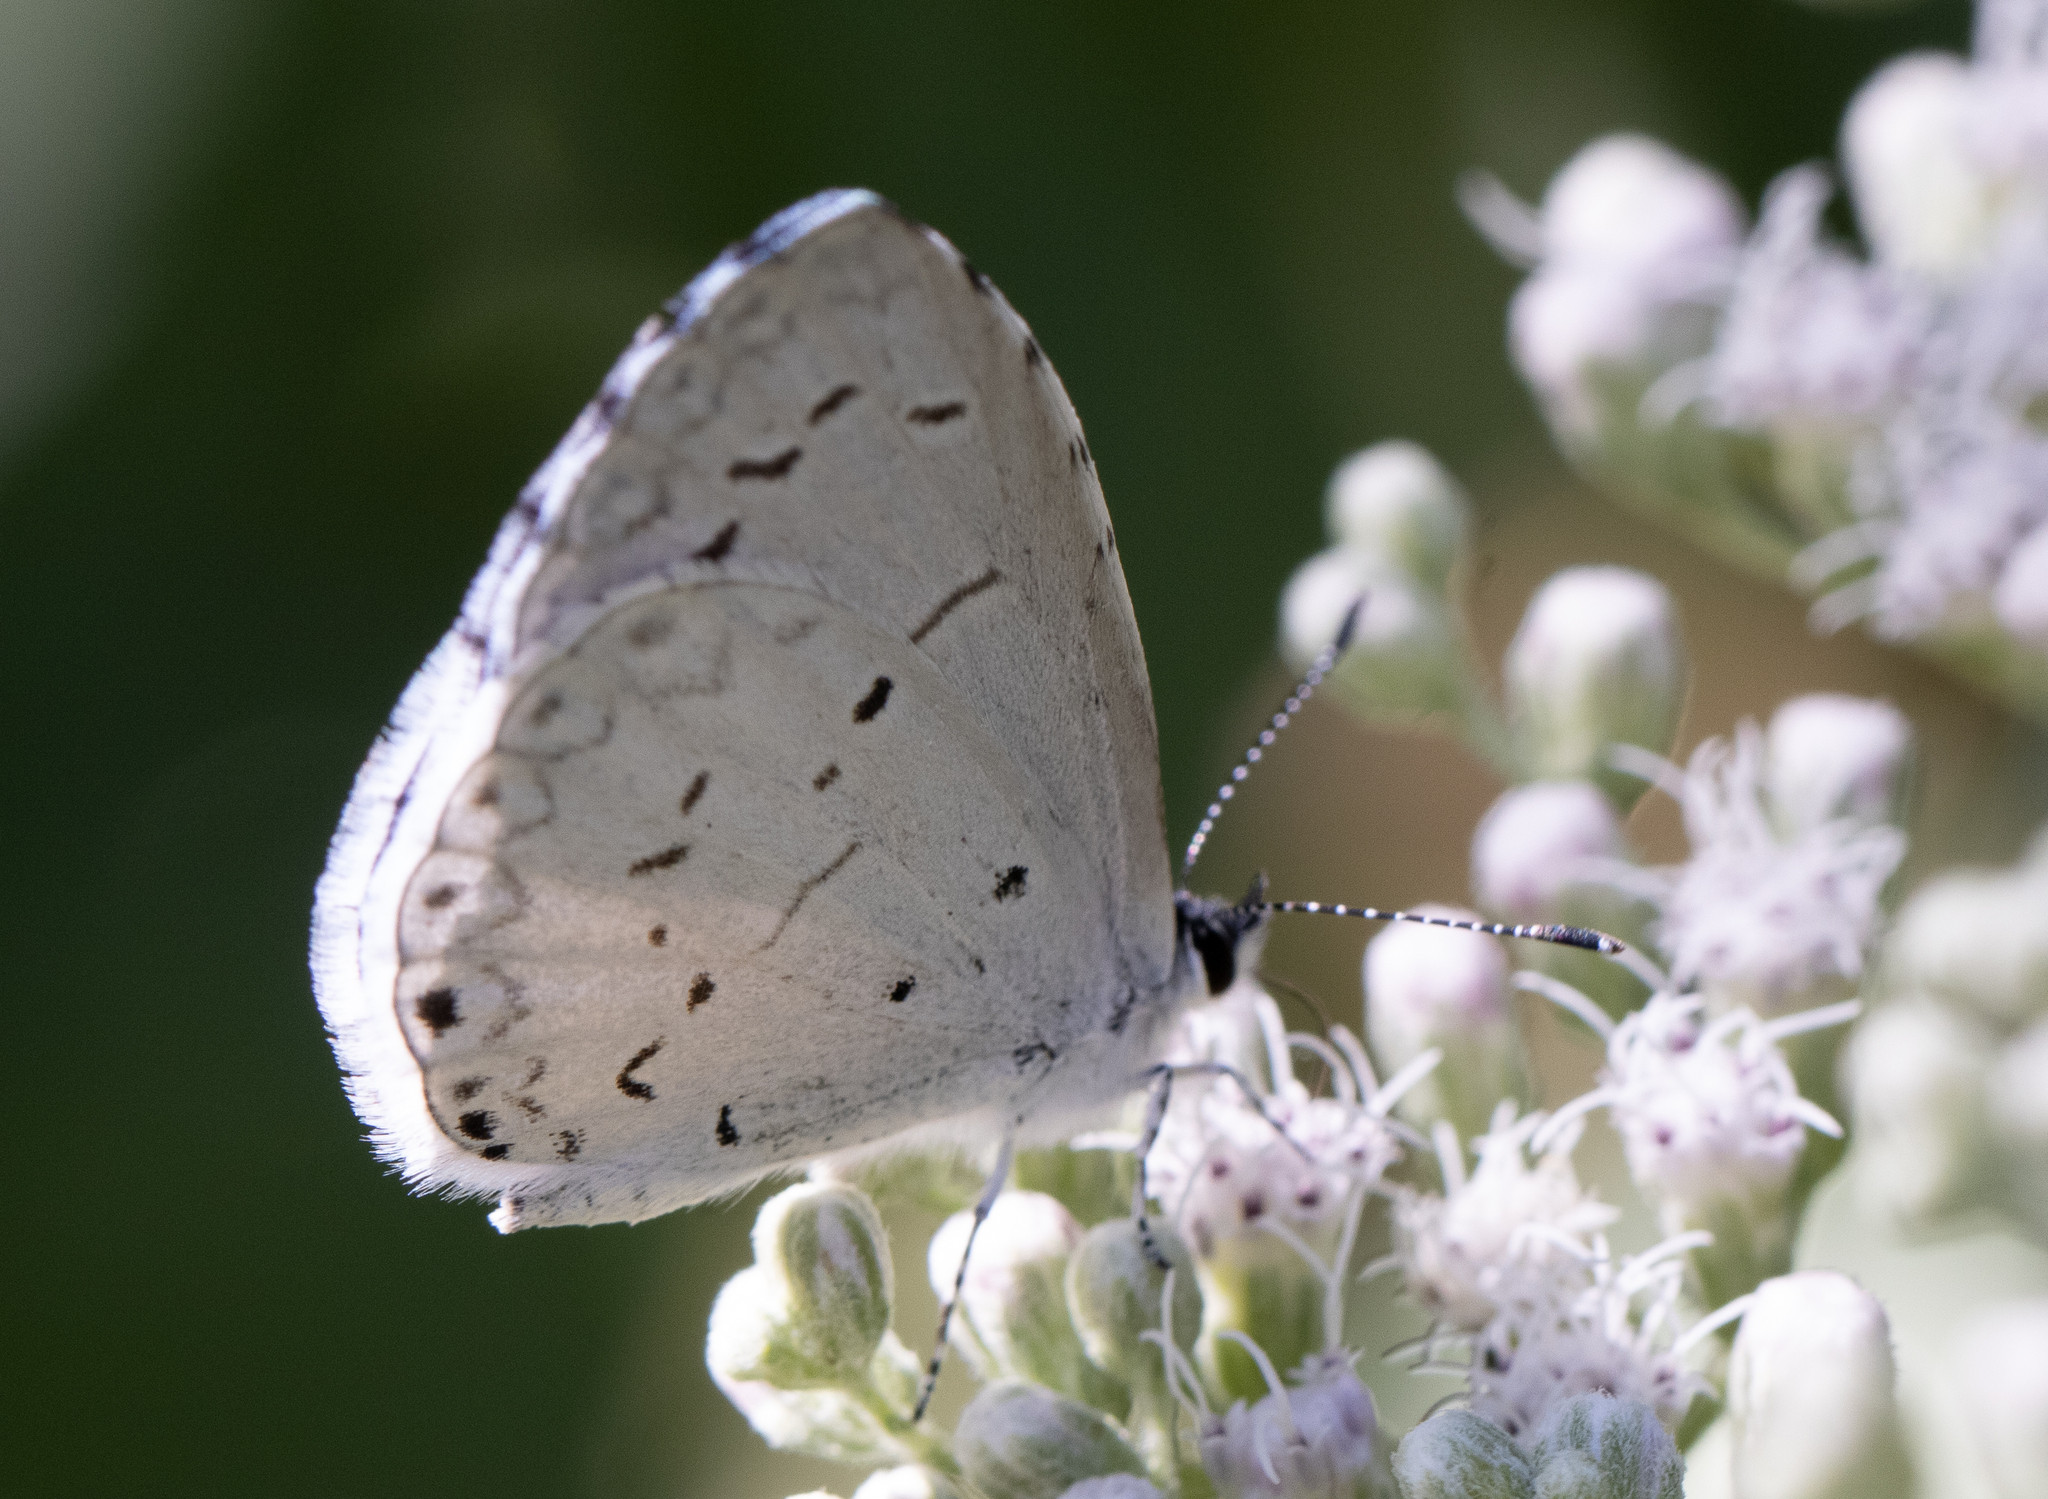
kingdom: Animalia
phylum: Arthropoda
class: Insecta
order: Lepidoptera
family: Lycaenidae
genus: Cyaniris
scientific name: Cyaniris neglecta
